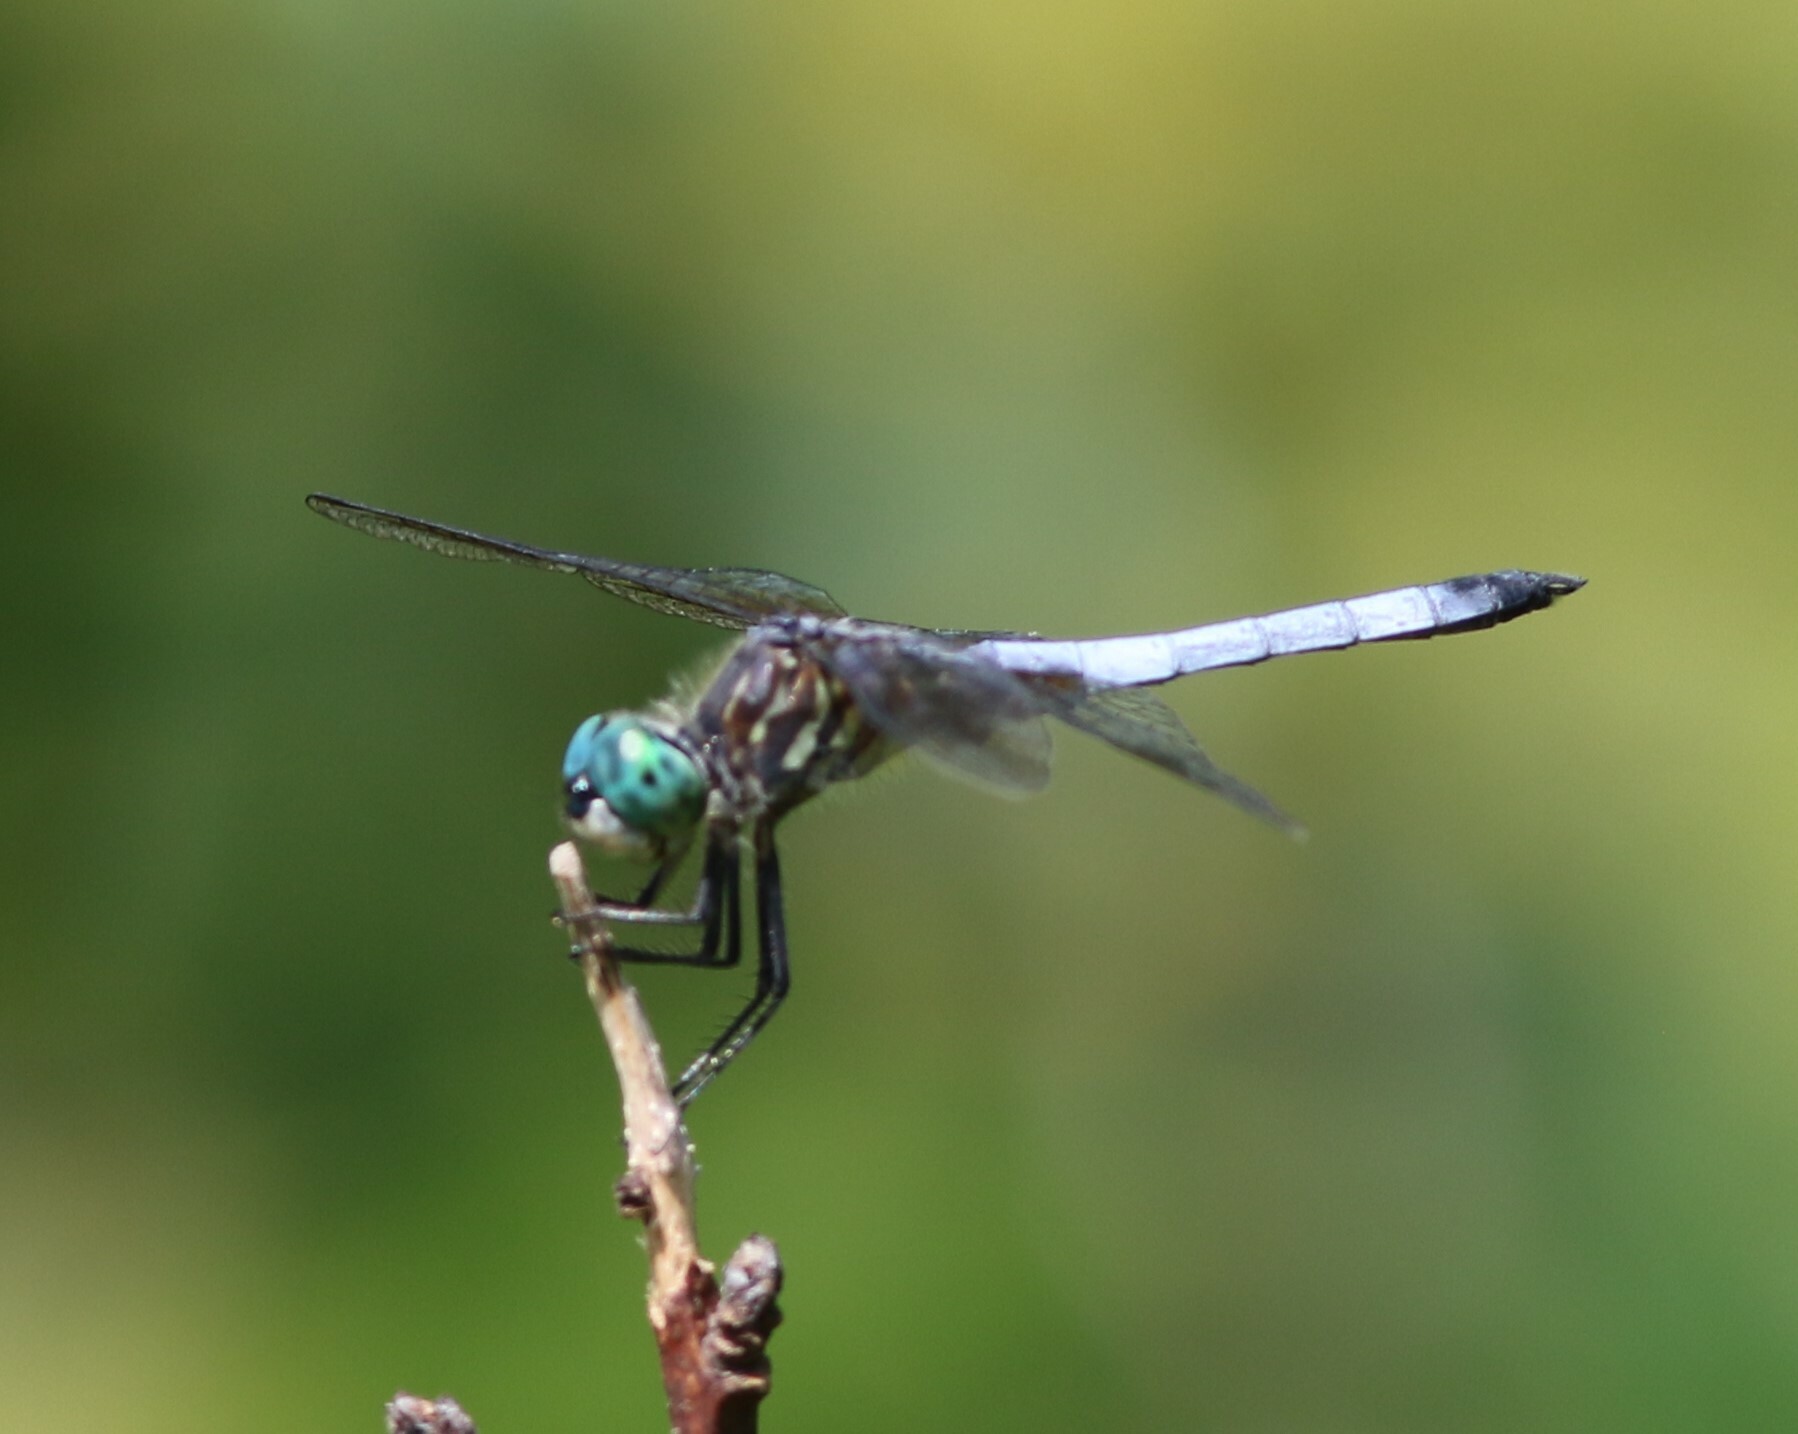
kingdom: Animalia
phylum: Arthropoda
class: Insecta
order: Odonata
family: Libellulidae
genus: Pachydiplax
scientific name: Pachydiplax longipennis
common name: Blue dasher
